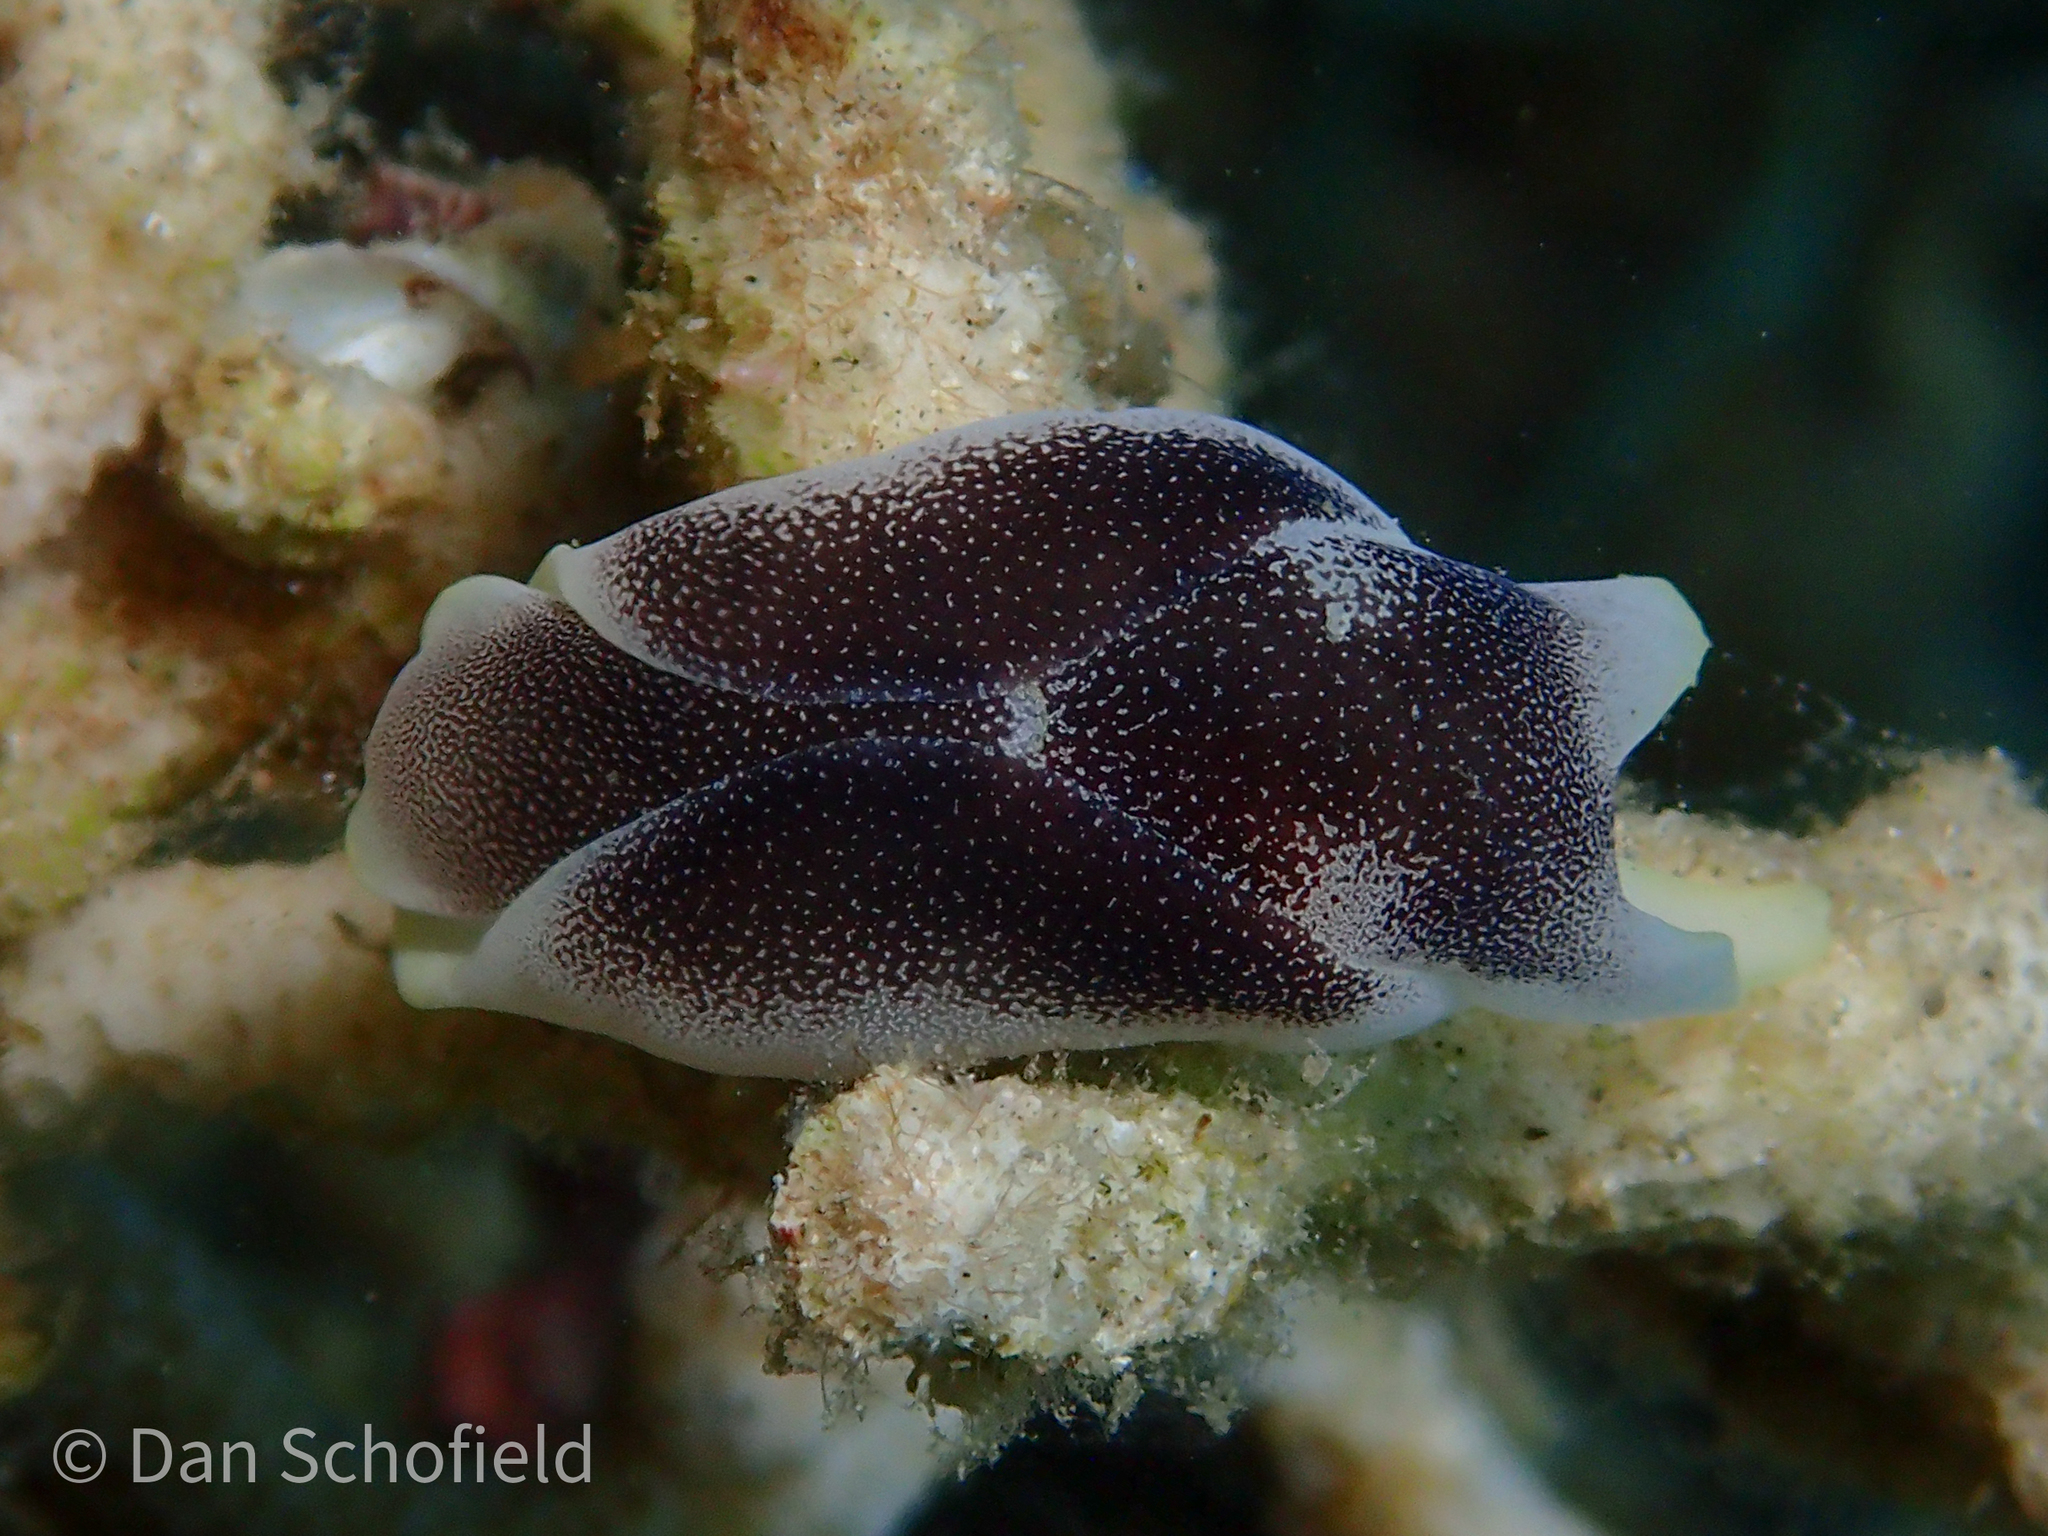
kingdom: Animalia
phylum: Mollusca
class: Gastropoda
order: Cephalaspidea
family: Aglajidae
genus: Chelidonura
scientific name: Chelidonura amoena
